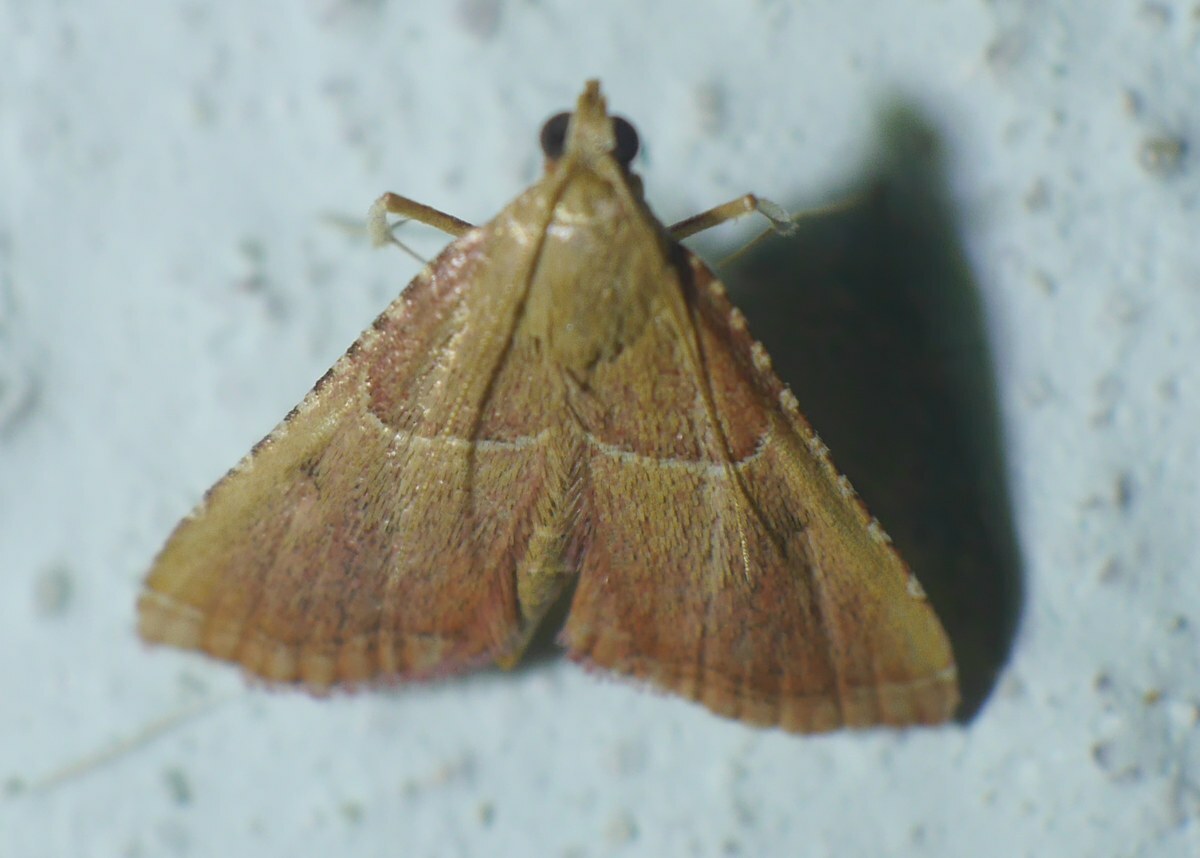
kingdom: Animalia
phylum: Arthropoda
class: Insecta
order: Lepidoptera
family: Pyralidae
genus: Endotricha
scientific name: Endotricha flammealis
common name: Rosy tabby
